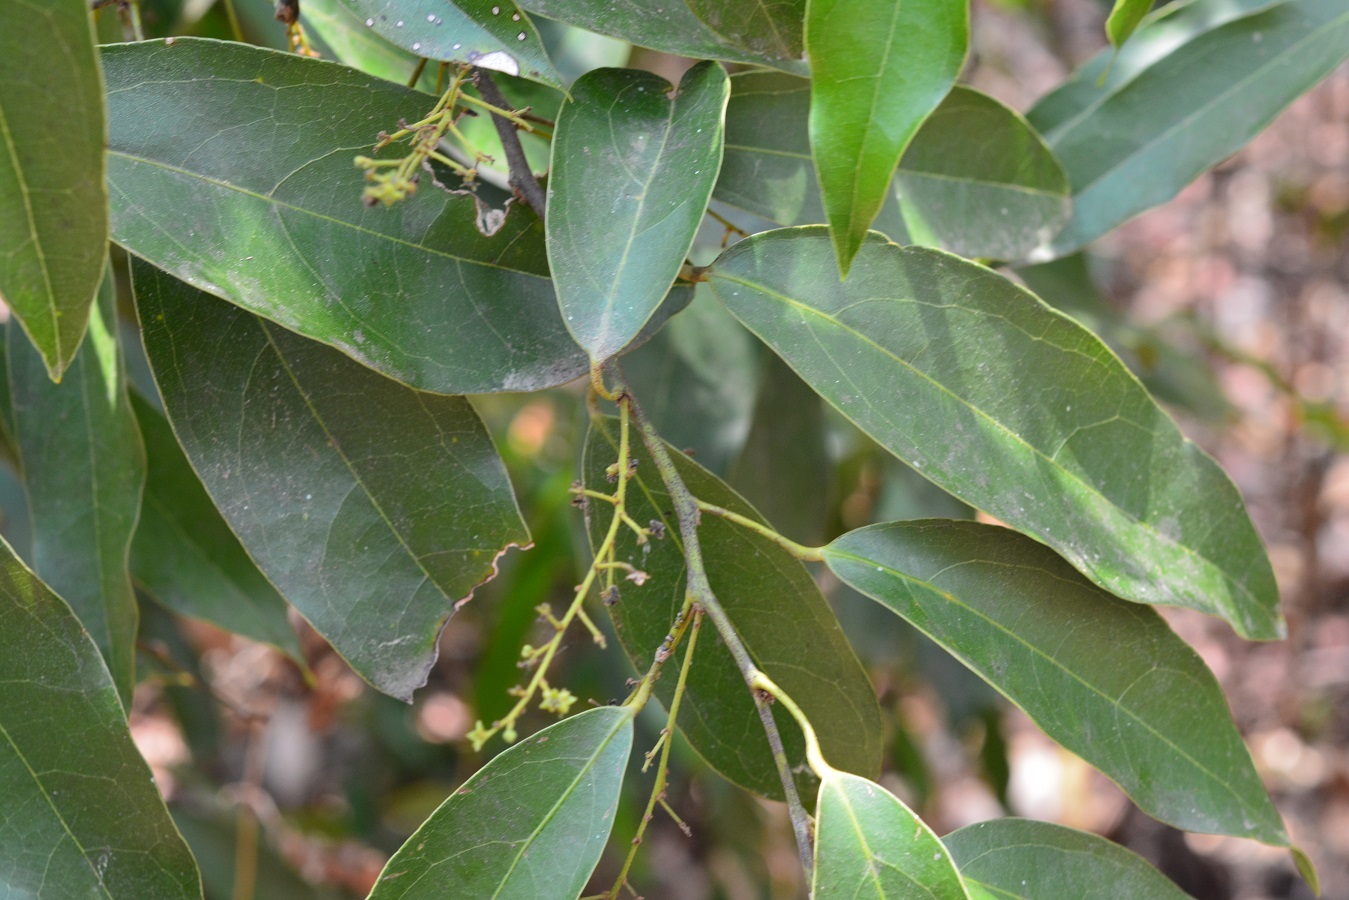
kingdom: Plantae
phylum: Tracheophyta
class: Magnoliopsida
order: Ranunculales
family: Menispermaceae
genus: Hyperbaena
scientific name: Hyperbaena mexicana
